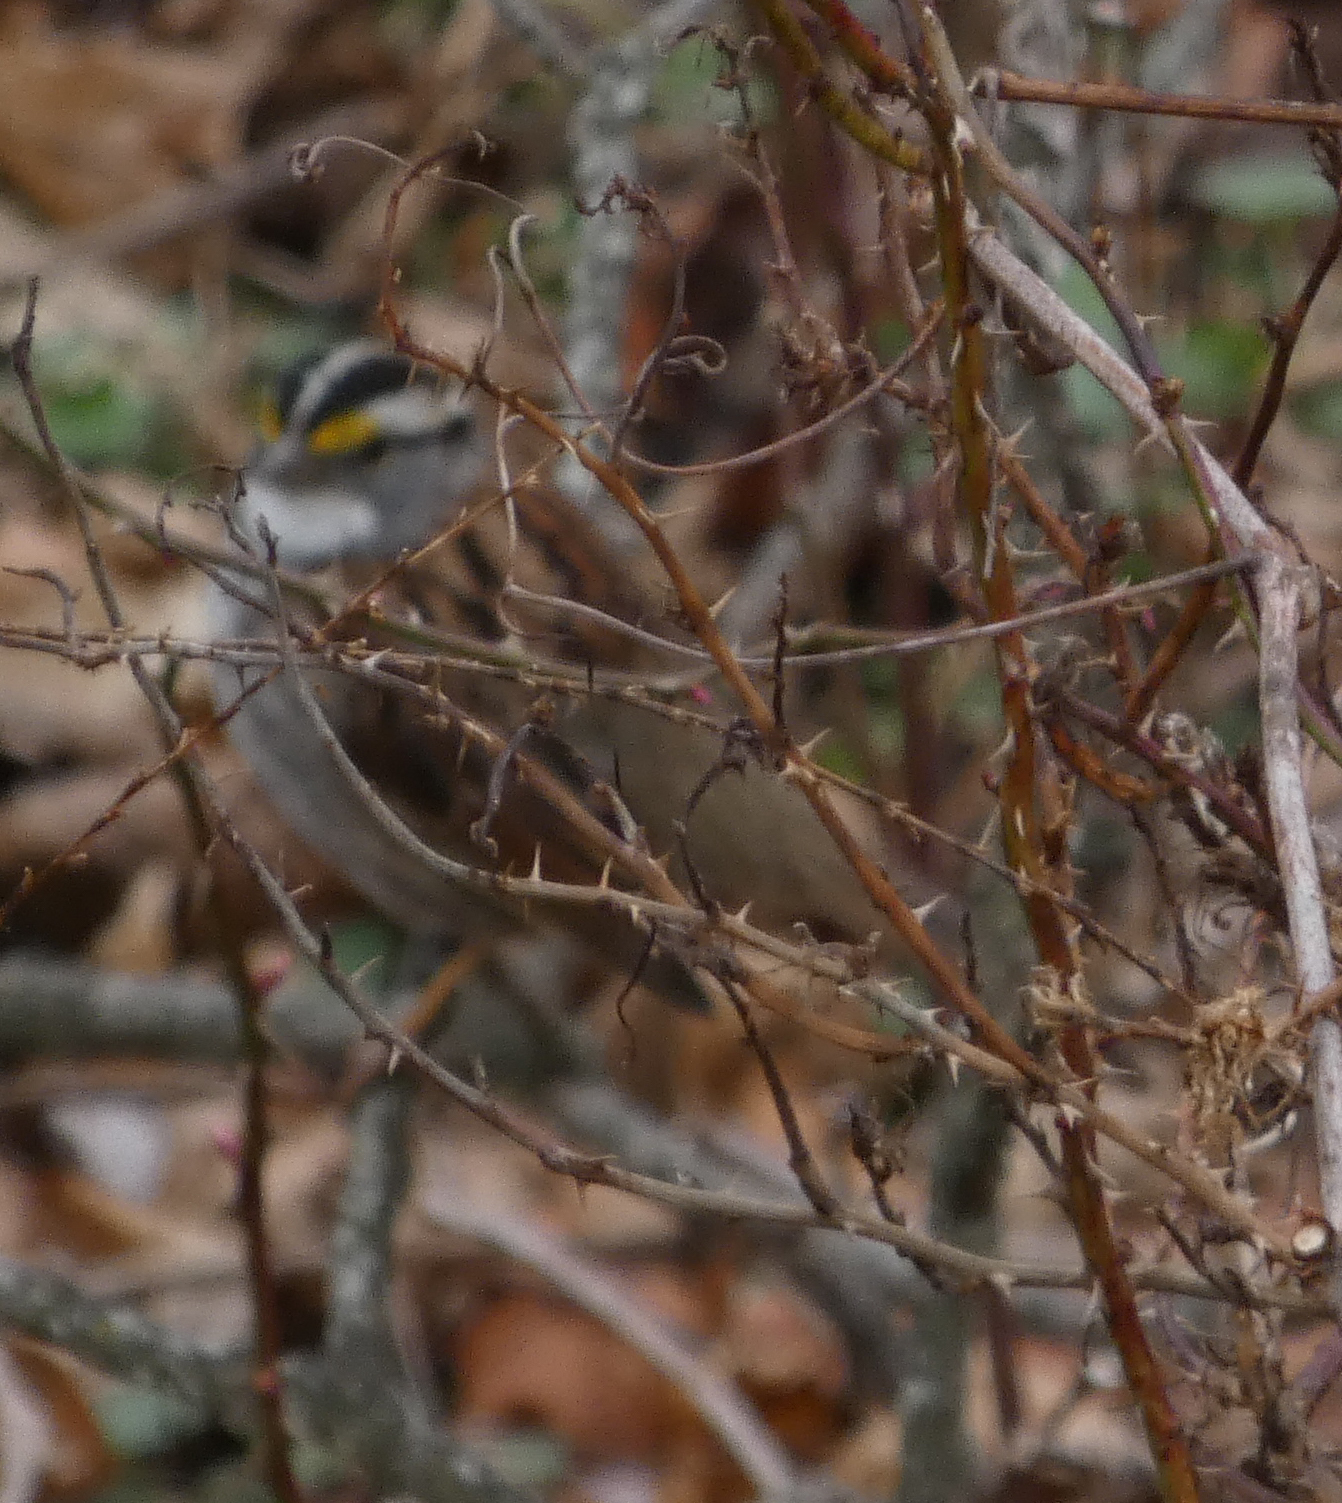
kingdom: Animalia
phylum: Chordata
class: Aves
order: Passeriformes
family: Passerellidae
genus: Zonotrichia
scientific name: Zonotrichia albicollis
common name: White-throated sparrow
